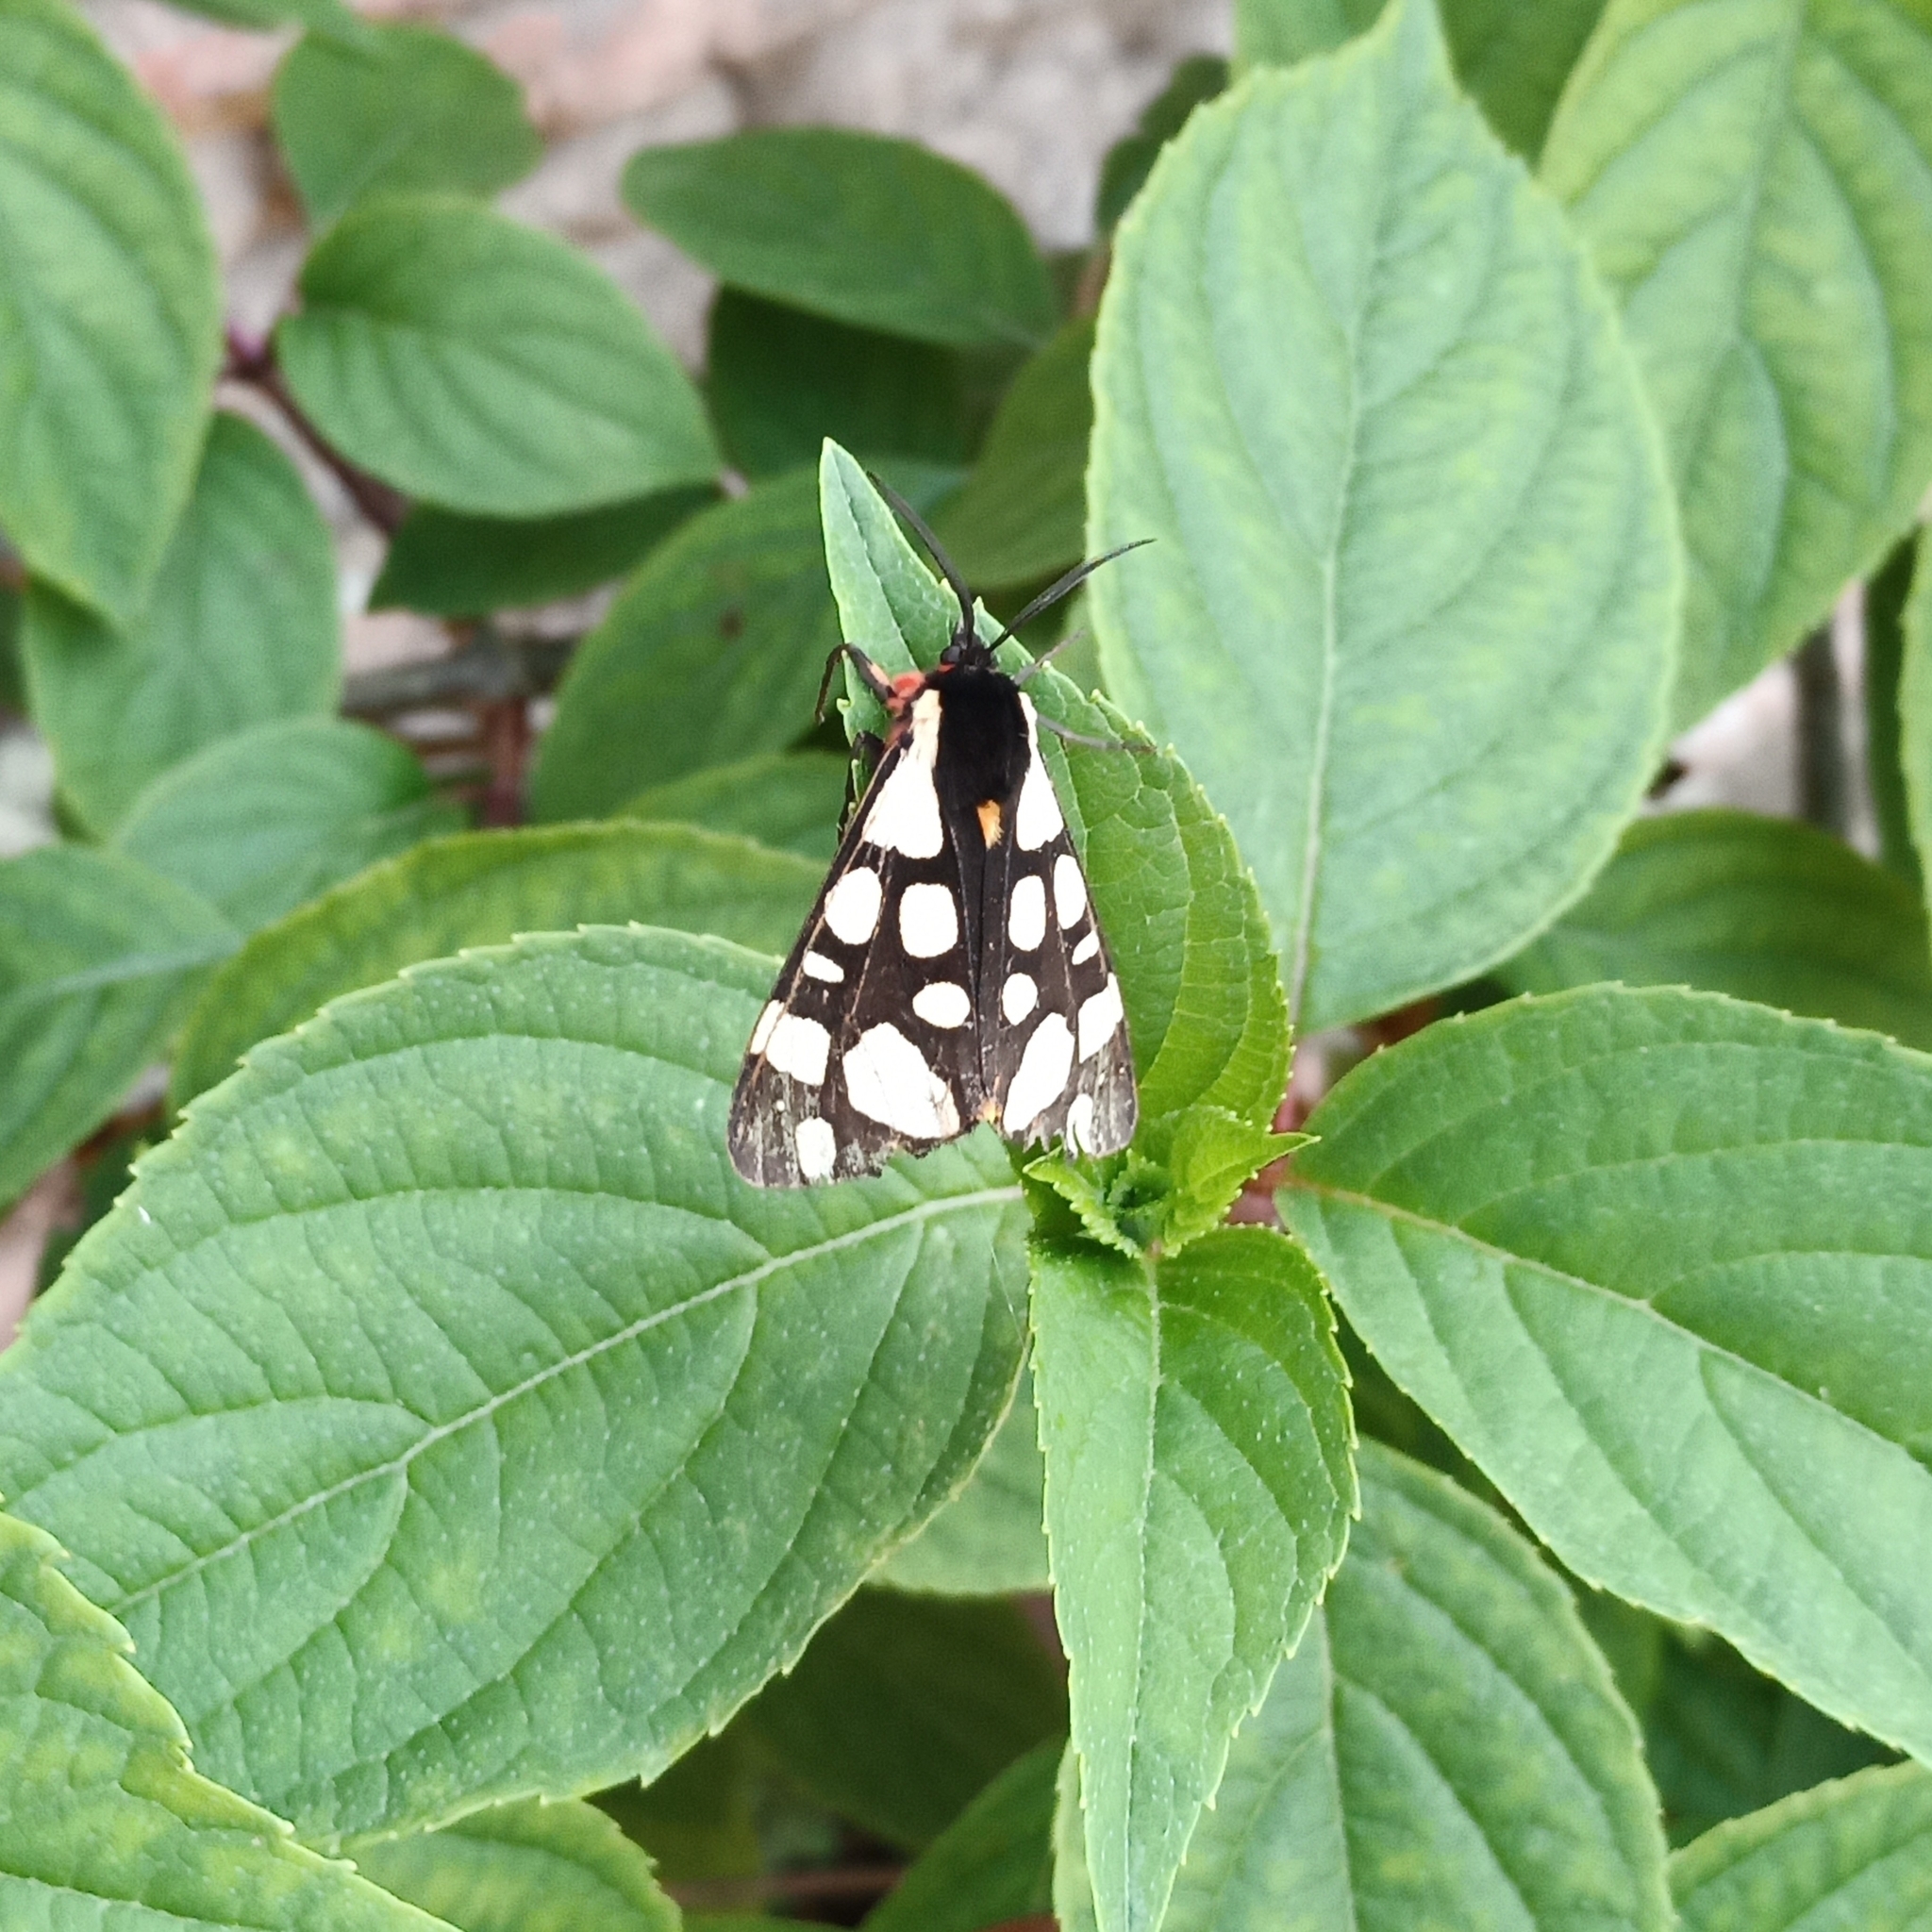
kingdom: Animalia
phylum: Arthropoda
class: Insecta
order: Lepidoptera
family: Erebidae
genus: Epicallia
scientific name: Epicallia villica
